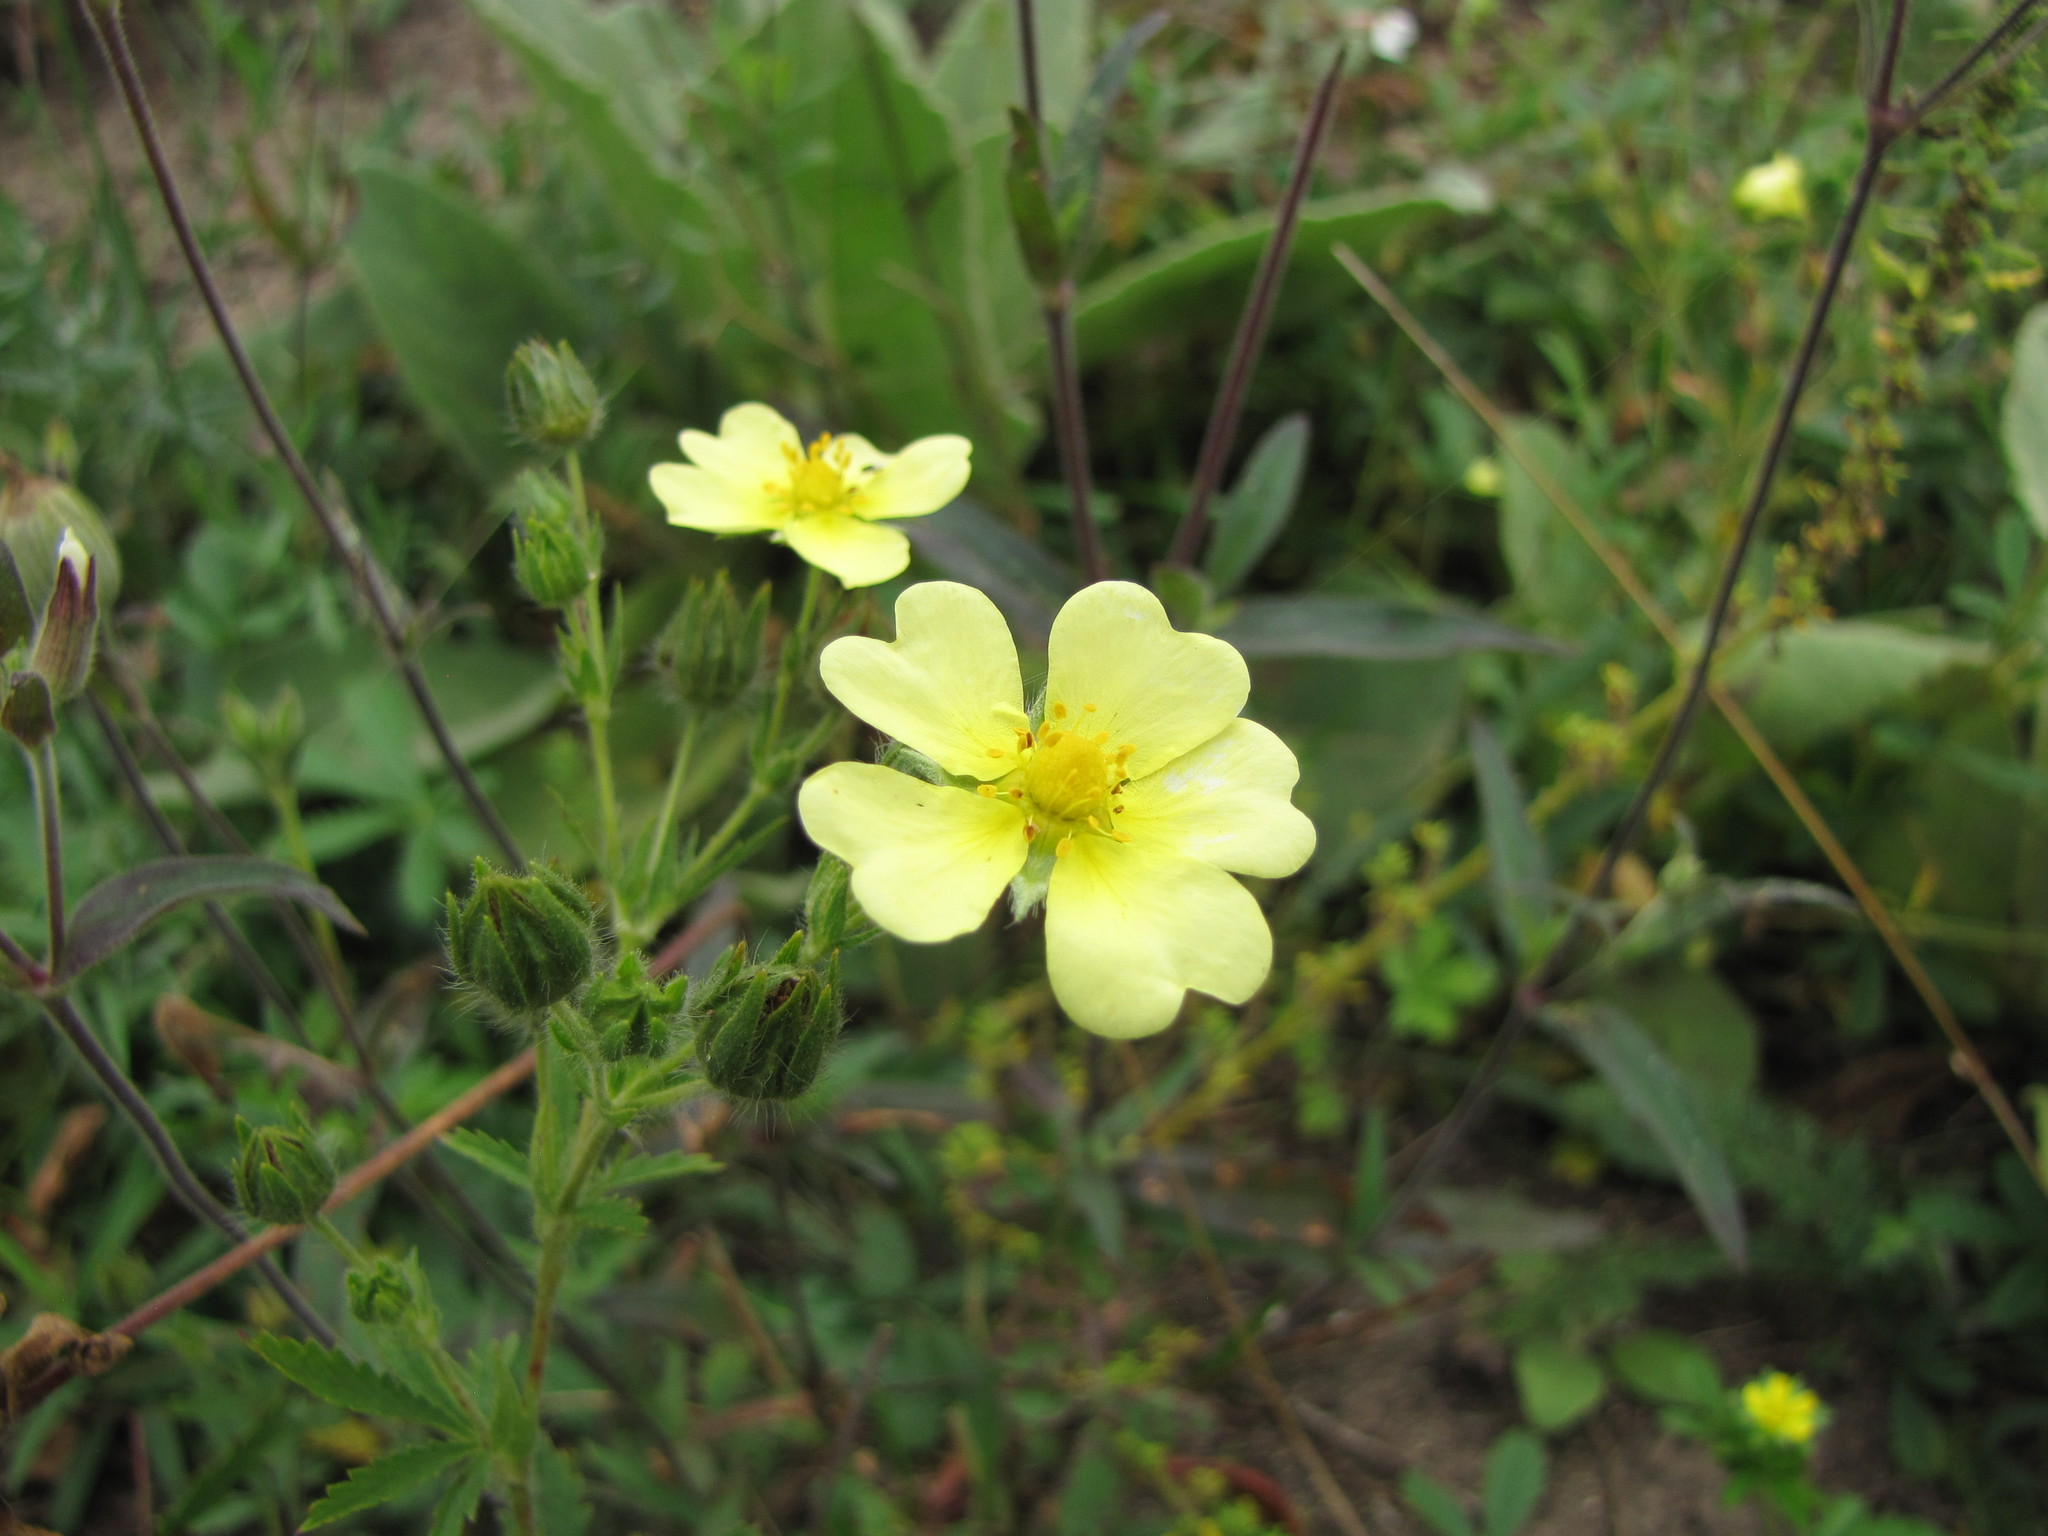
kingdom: Plantae
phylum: Tracheophyta
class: Magnoliopsida
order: Rosales
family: Rosaceae
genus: Potentilla
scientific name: Potentilla recta
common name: Sulphur cinquefoil
